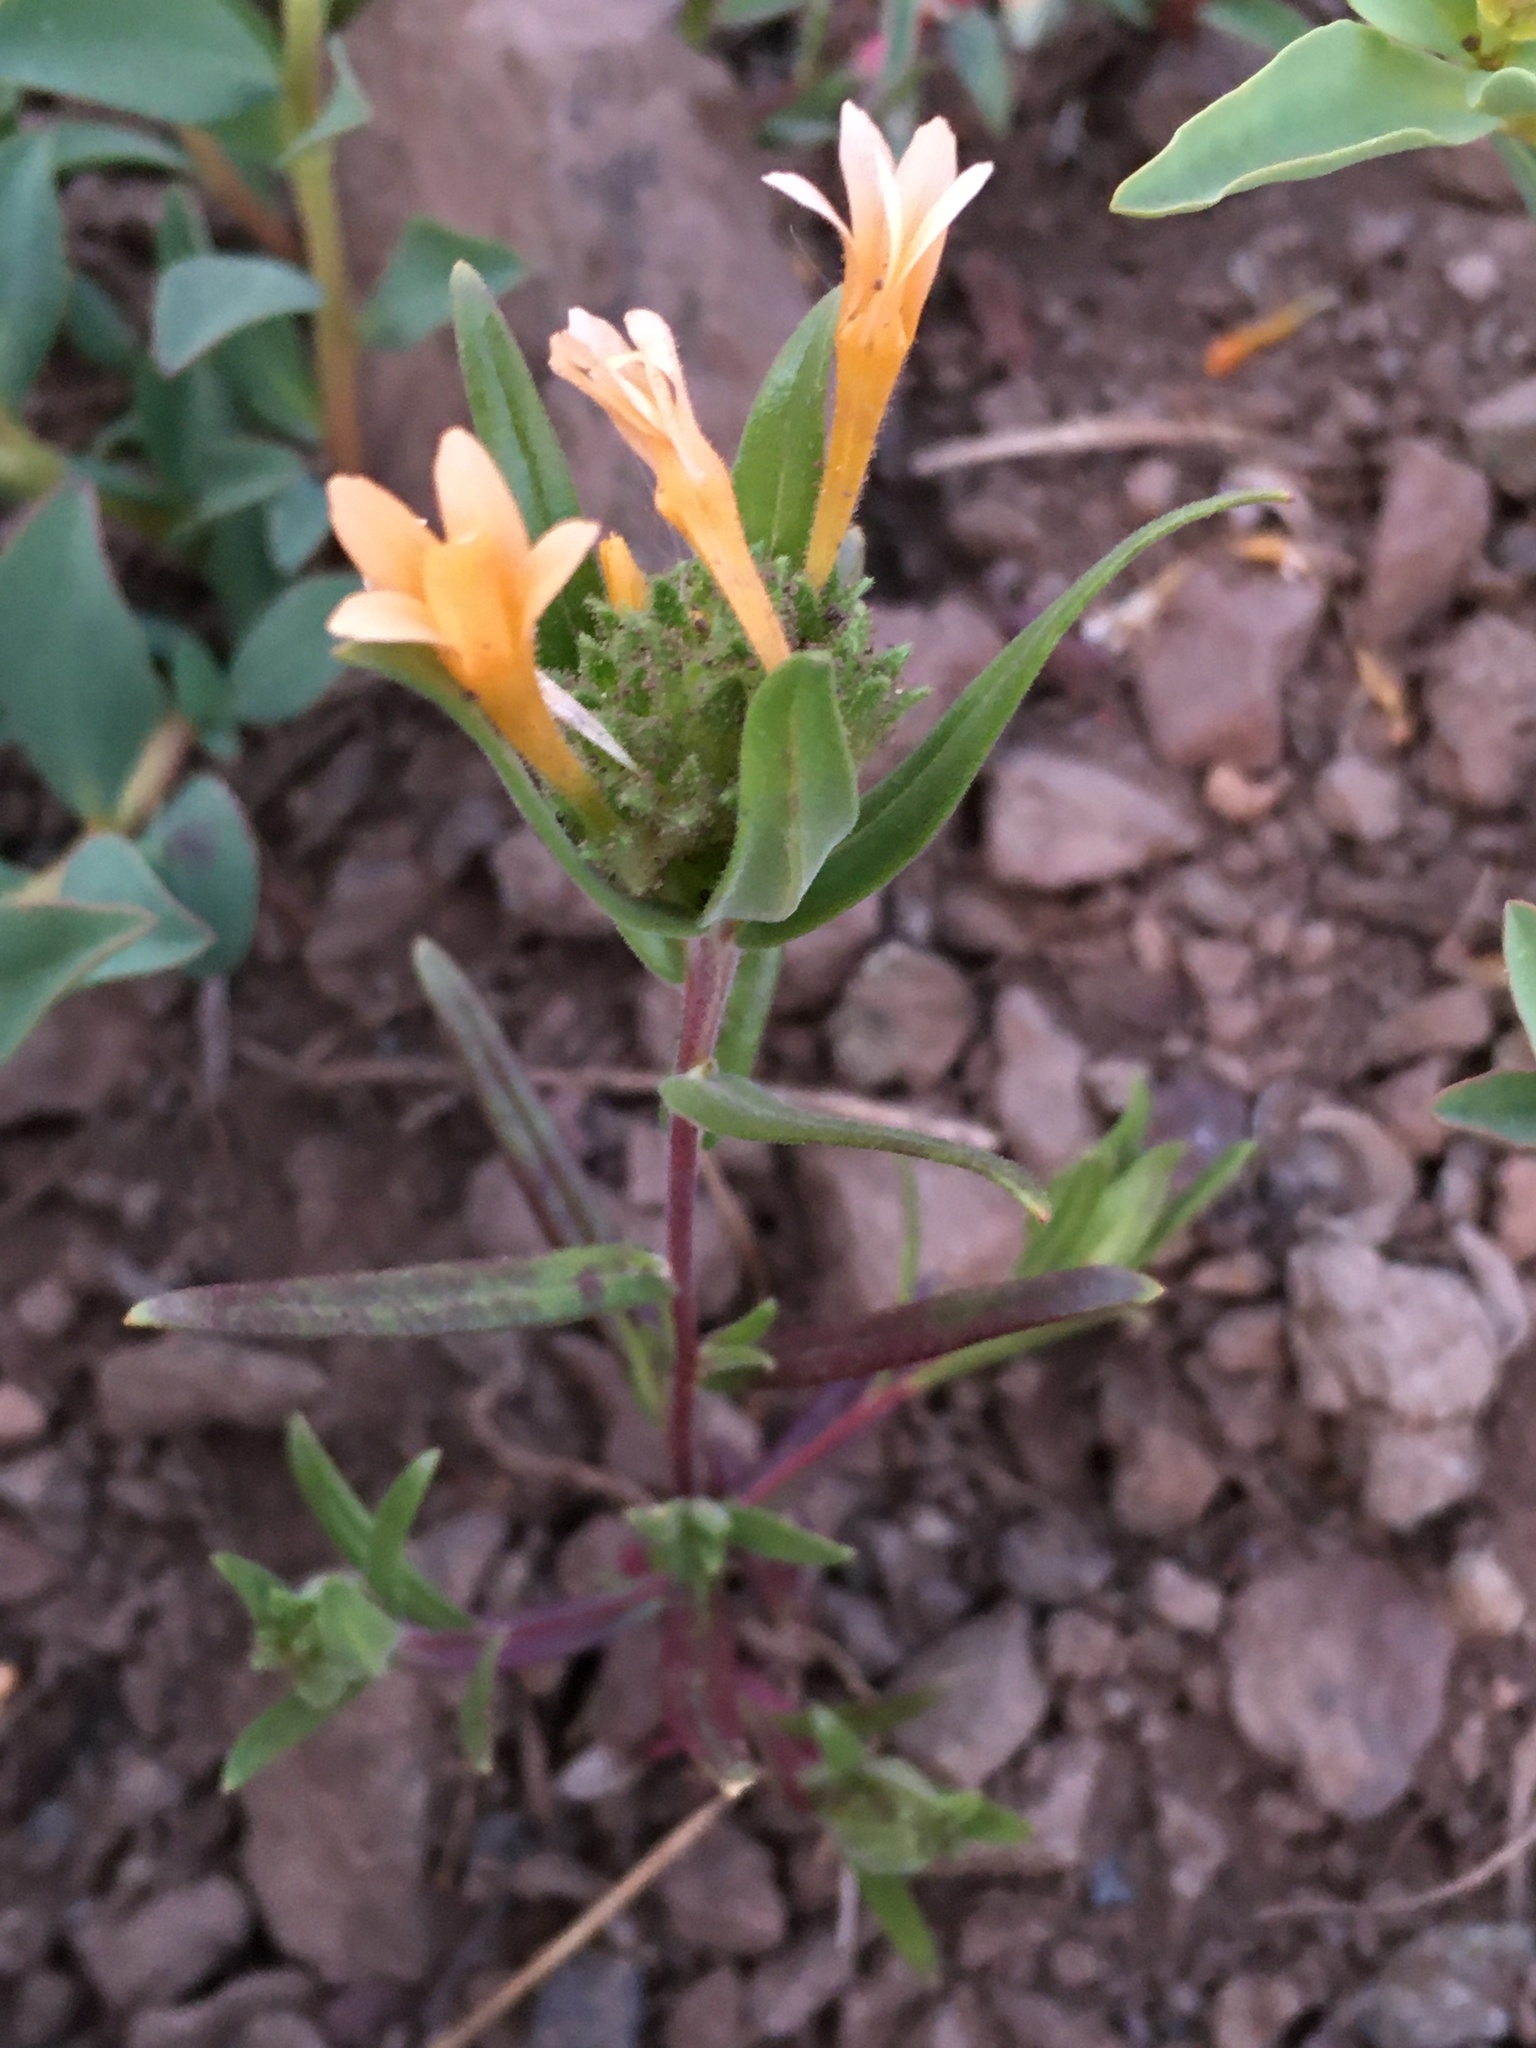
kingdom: Plantae
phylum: Tracheophyta
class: Magnoliopsida
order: Ericales
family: Polemoniaceae
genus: Collomia
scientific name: Collomia biflora
